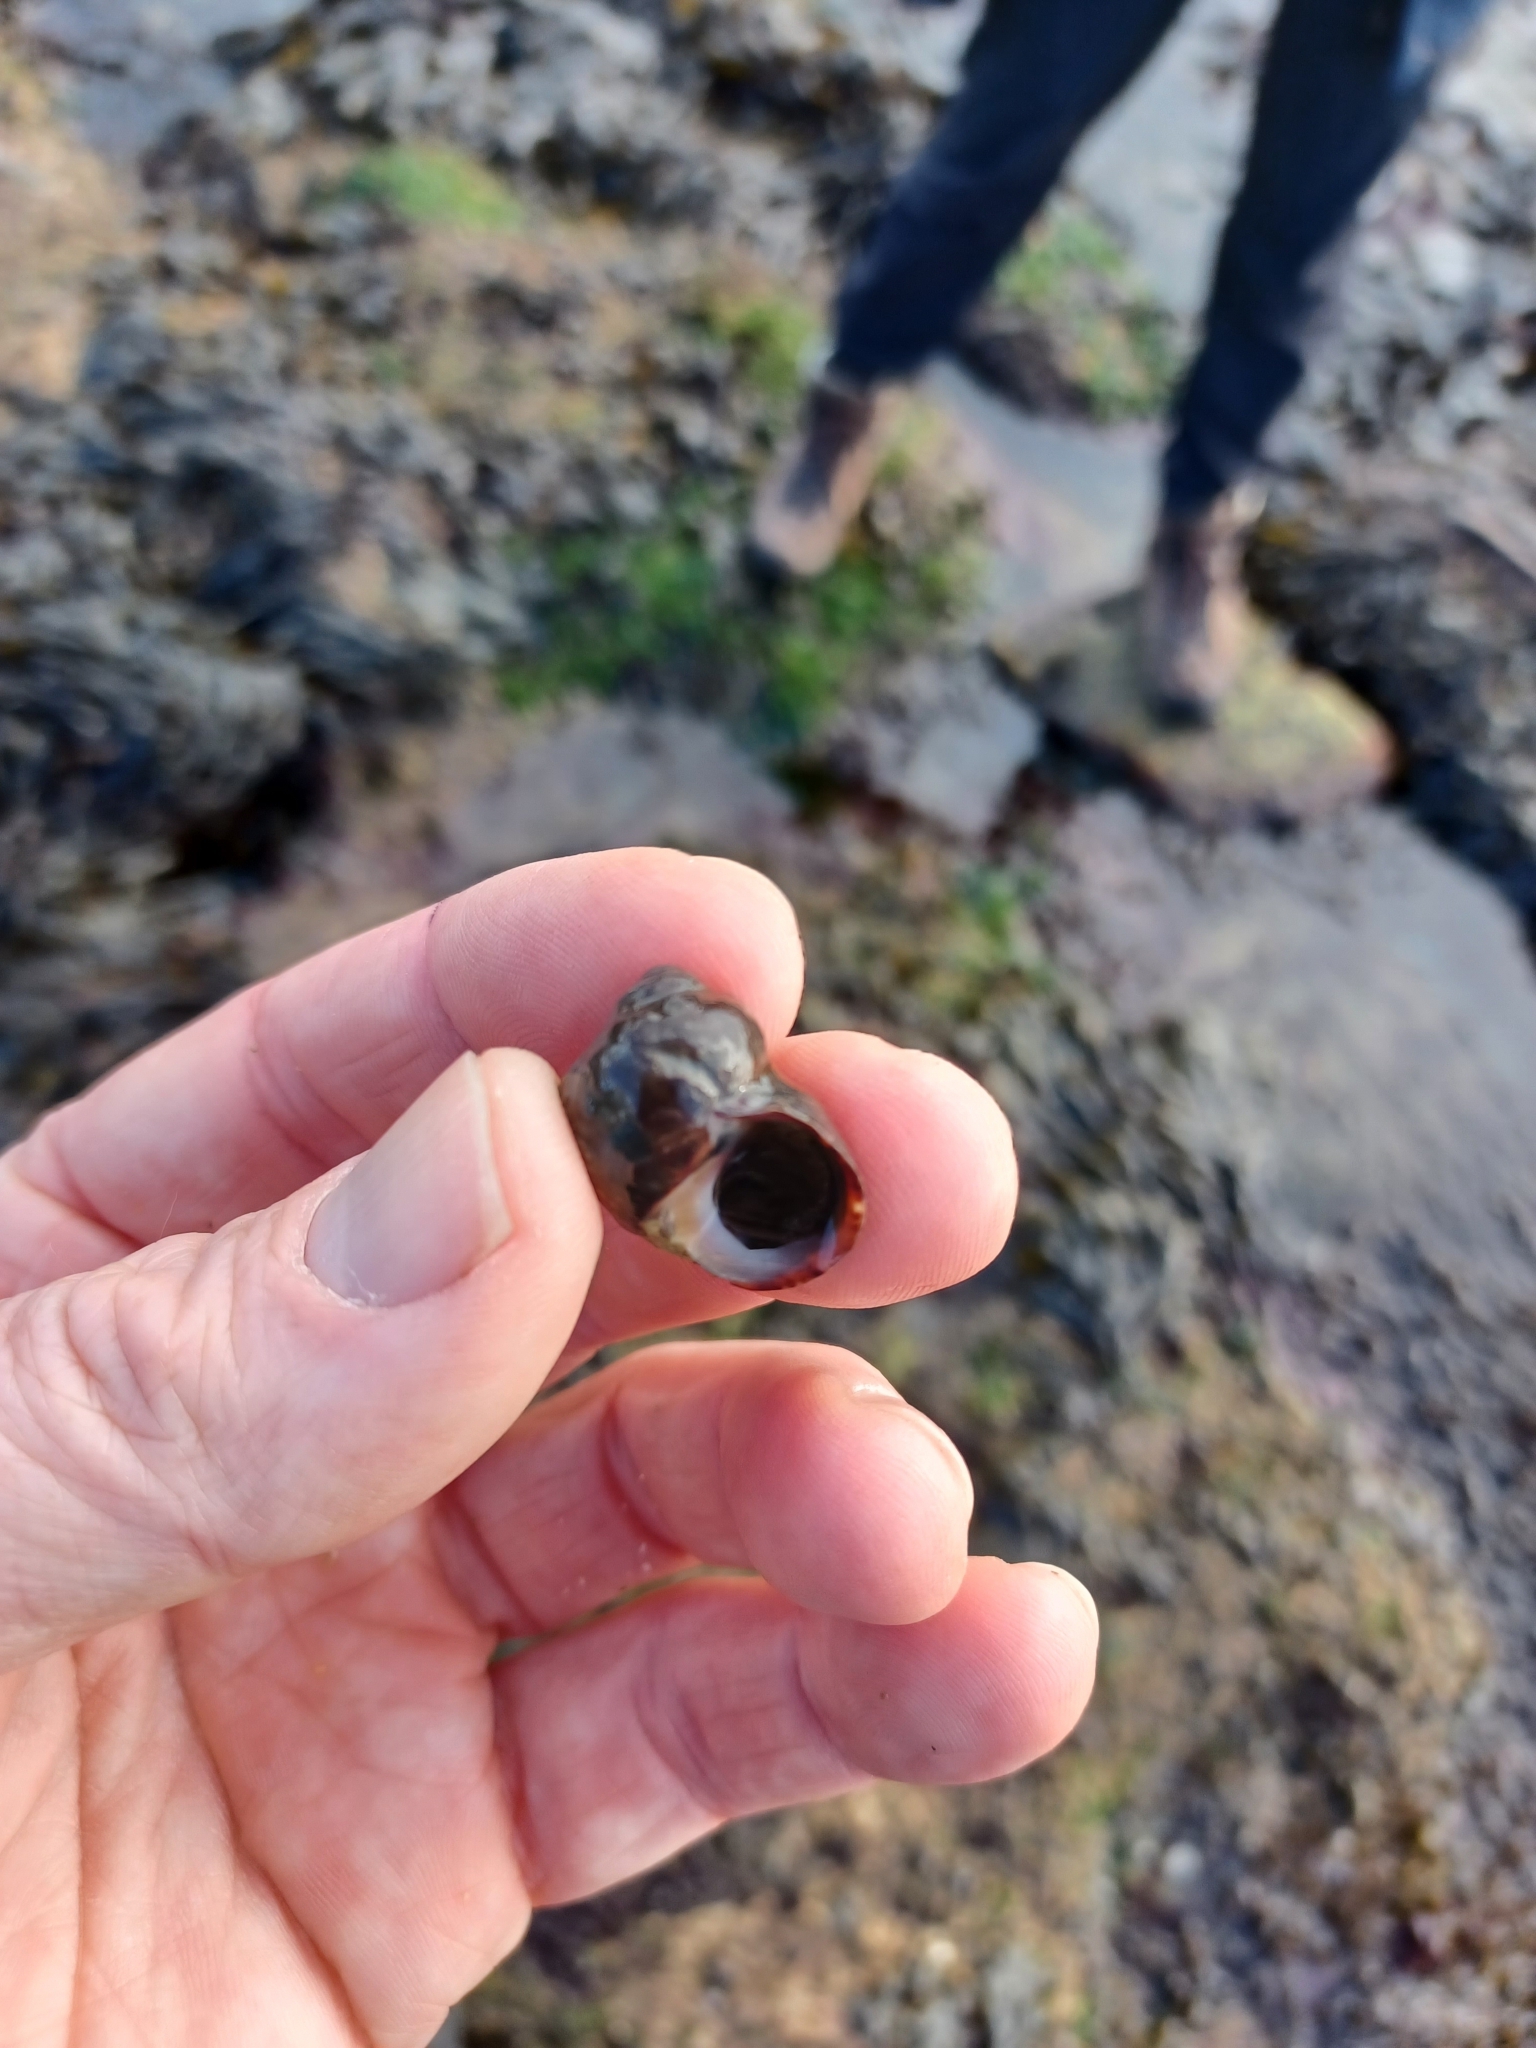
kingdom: Animalia
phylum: Mollusca
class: Gastropoda
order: Littorinimorpha
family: Littorinidae
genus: Littorina
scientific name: Littorina littorea
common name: Common periwinkle
